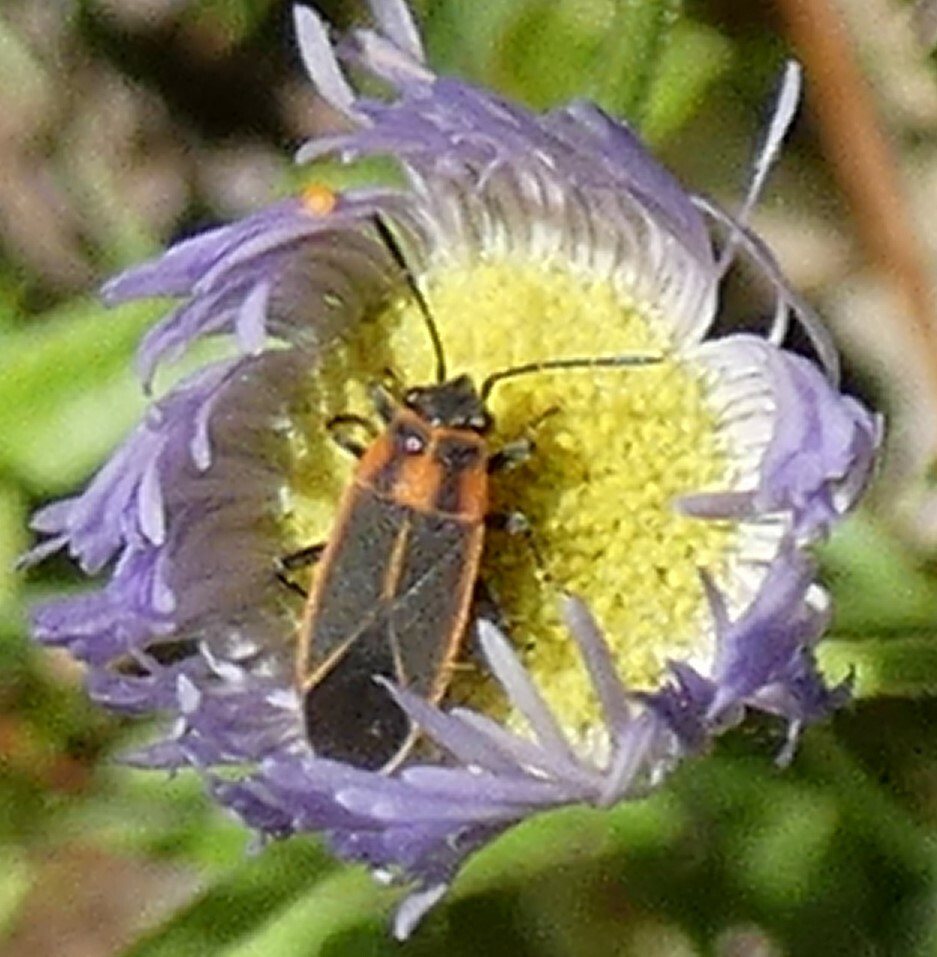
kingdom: Animalia
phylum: Arthropoda
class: Insecta
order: Hemiptera
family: Lygaeidae
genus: Ochrimnus
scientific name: Ochrimnus lineoloides
